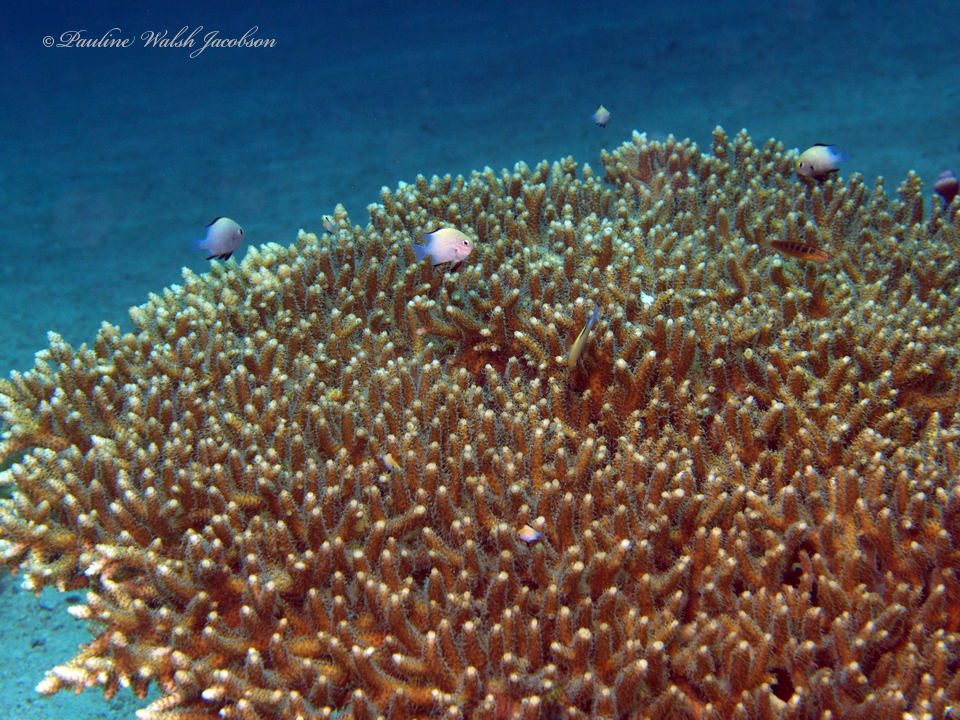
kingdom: Animalia
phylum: Chordata
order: Perciformes
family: Pomacentridae
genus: Dascyllus
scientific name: Dascyllus marginatus
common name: Red sea dascyllus
